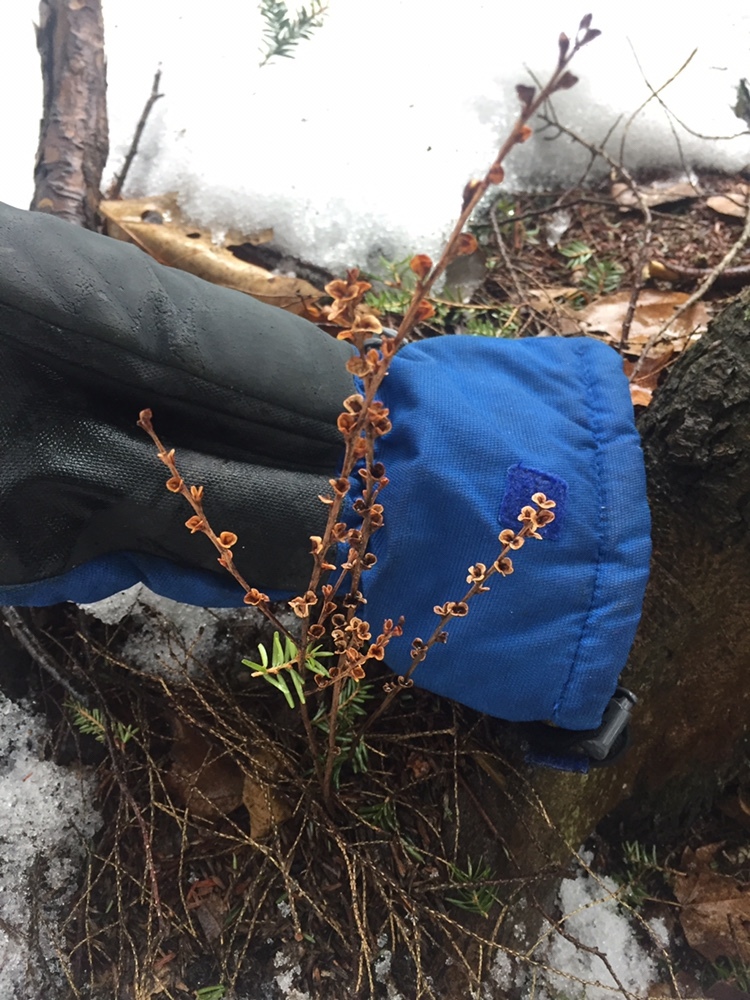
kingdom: Plantae
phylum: Tracheophyta
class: Magnoliopsida
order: Lamiales
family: Orobanchaceae
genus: Epifagus
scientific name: Epifagus virginiana
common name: Beechdrops
